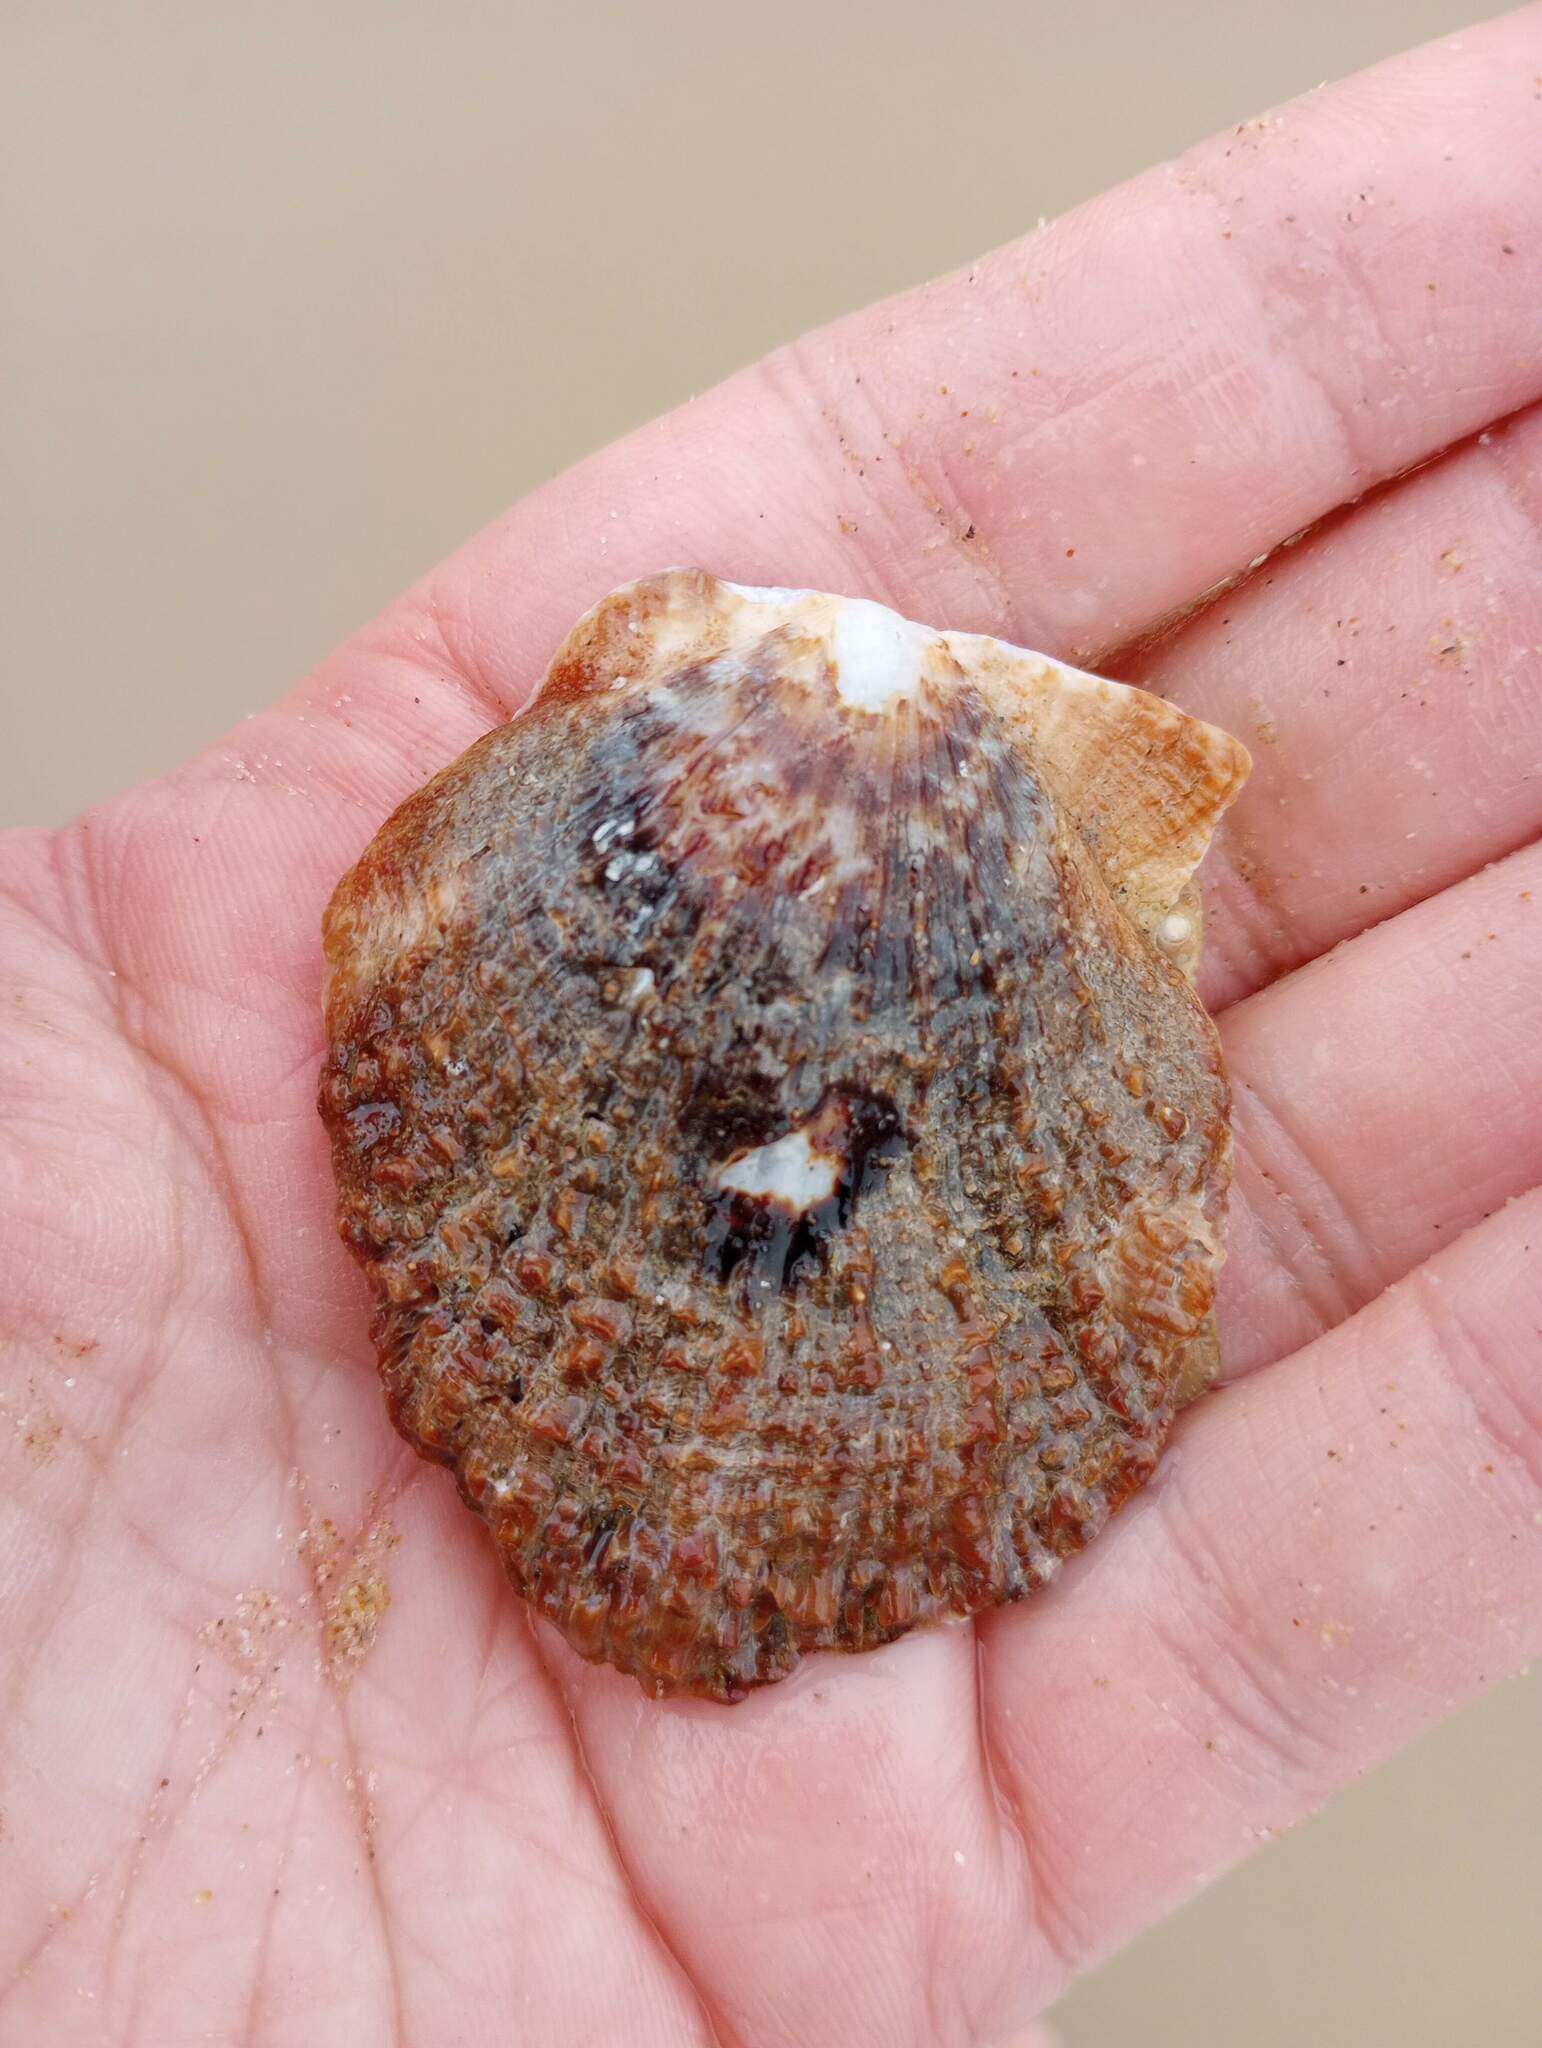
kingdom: Animalia
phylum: Mollusca
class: Bivalvia
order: Pectinida
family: Pectinidae
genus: Crassadoma
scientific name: Crassadoma gigantea
